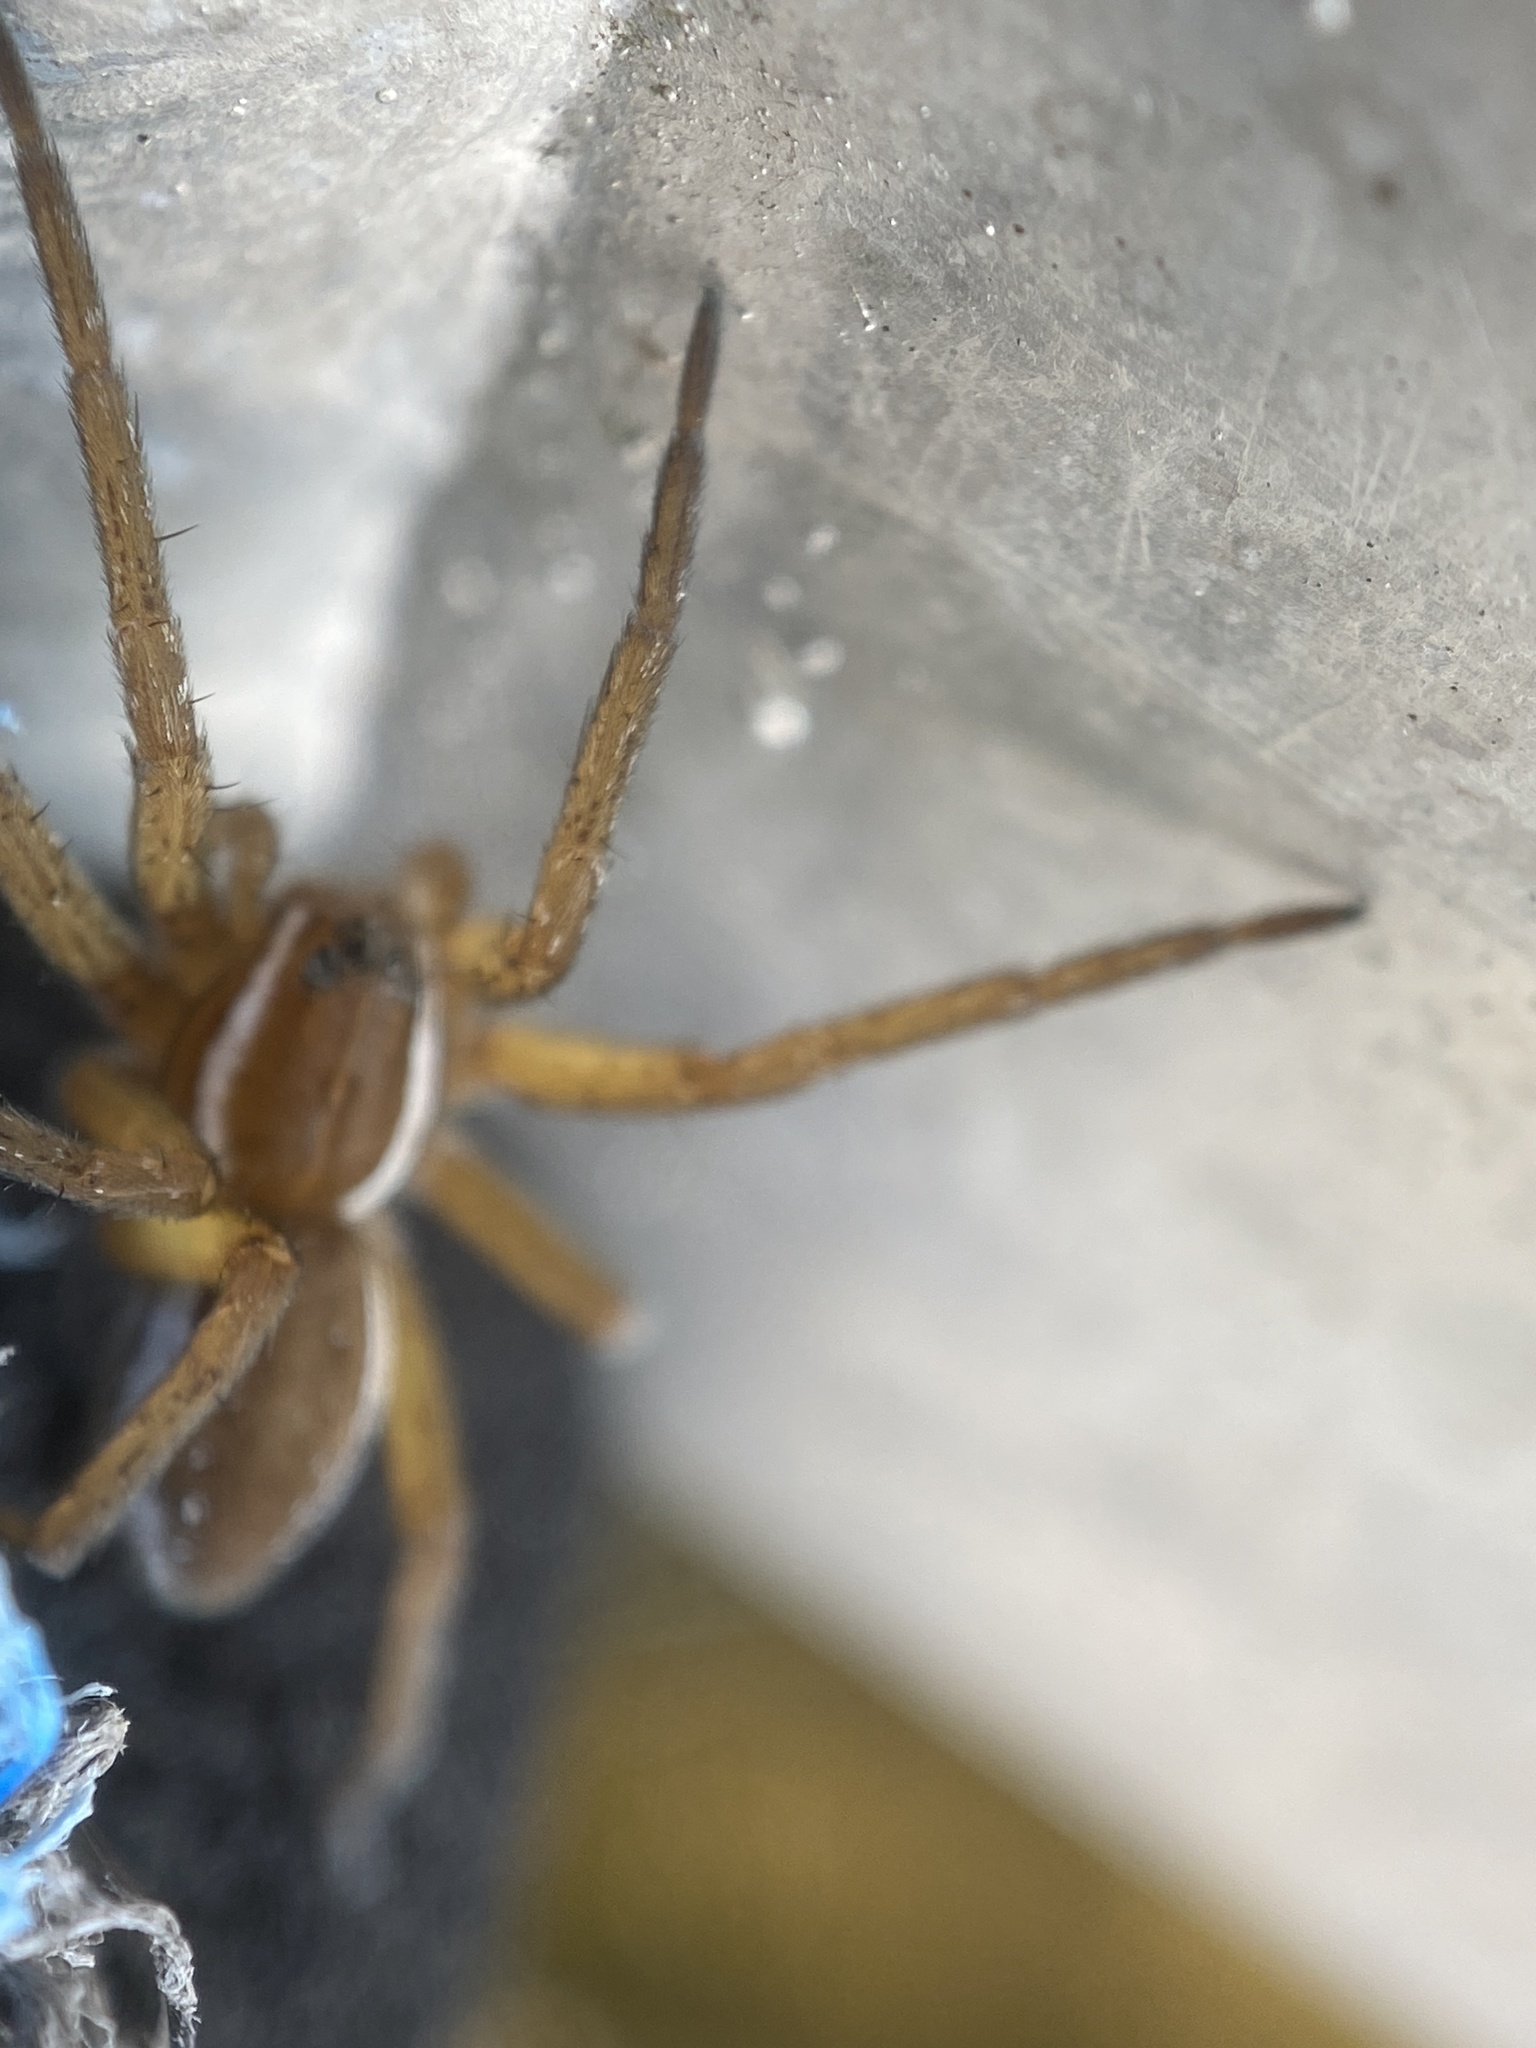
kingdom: Animalia
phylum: Arthropoda
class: Arachnida
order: Araneae
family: Pisauridae
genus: Dolomedes
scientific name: Dolomedes triton
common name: Six-spotted fishing spider
